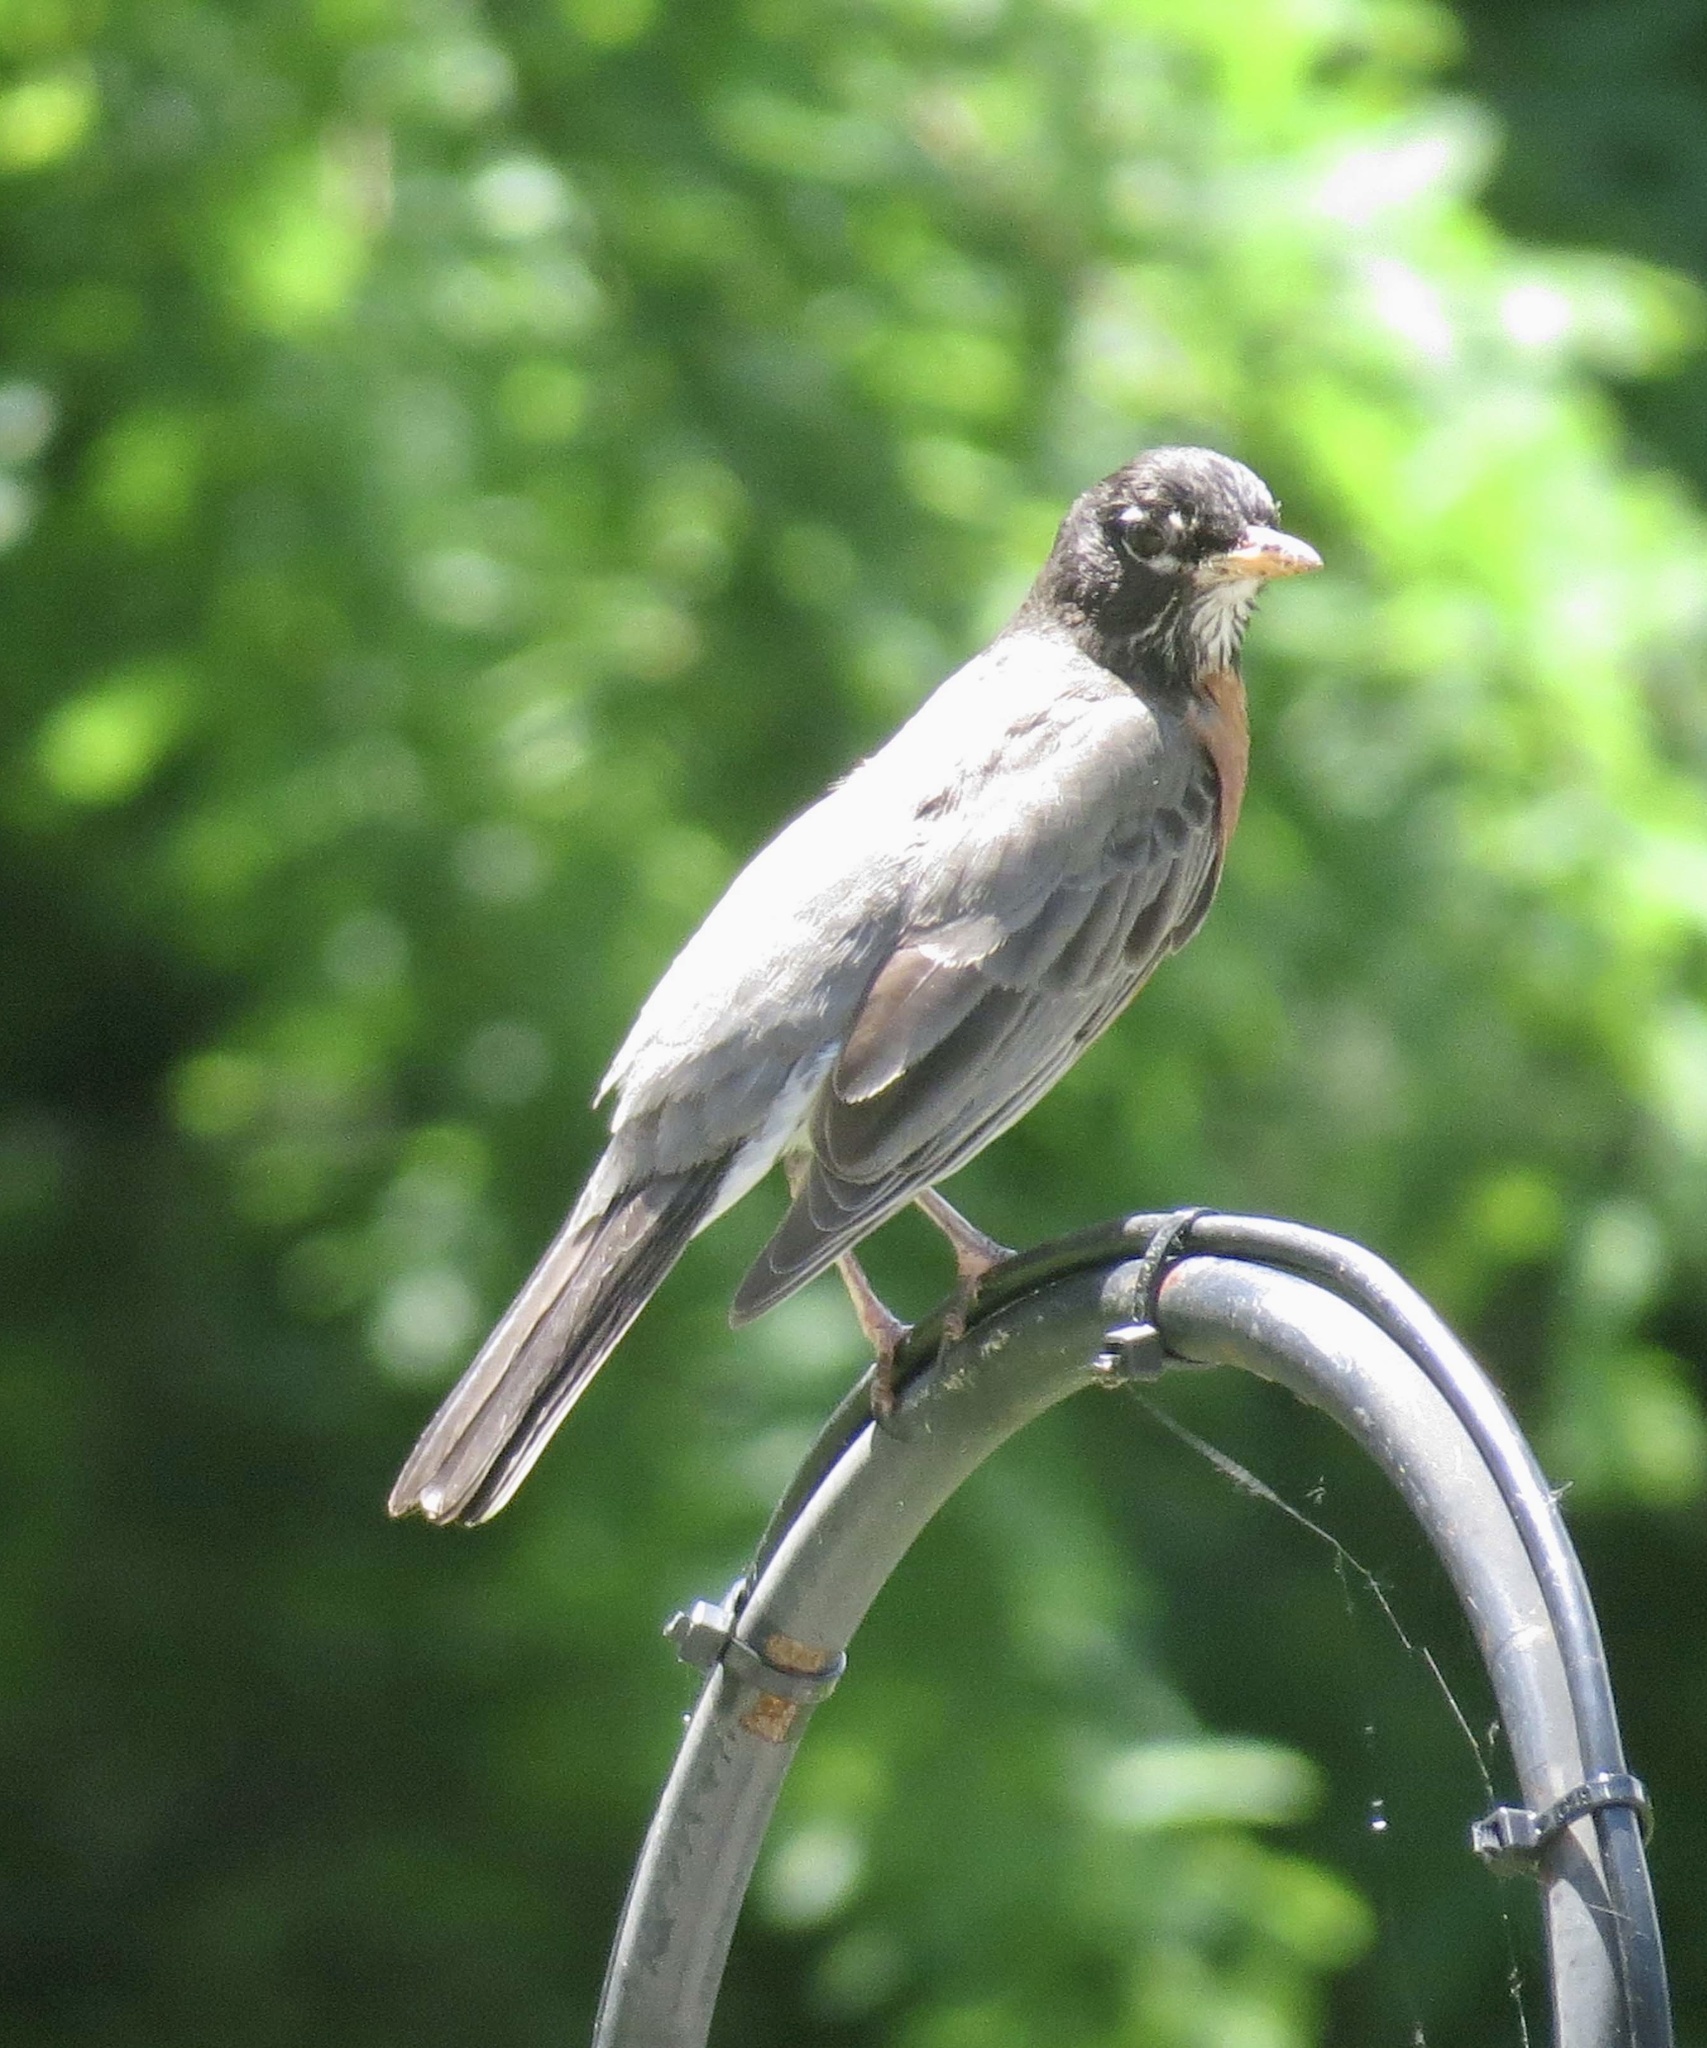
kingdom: Animalia
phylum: Chordata
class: Aves
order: Passeriformes
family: Turdidae
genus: Turdus
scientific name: Turdus migratorius
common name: American robin
